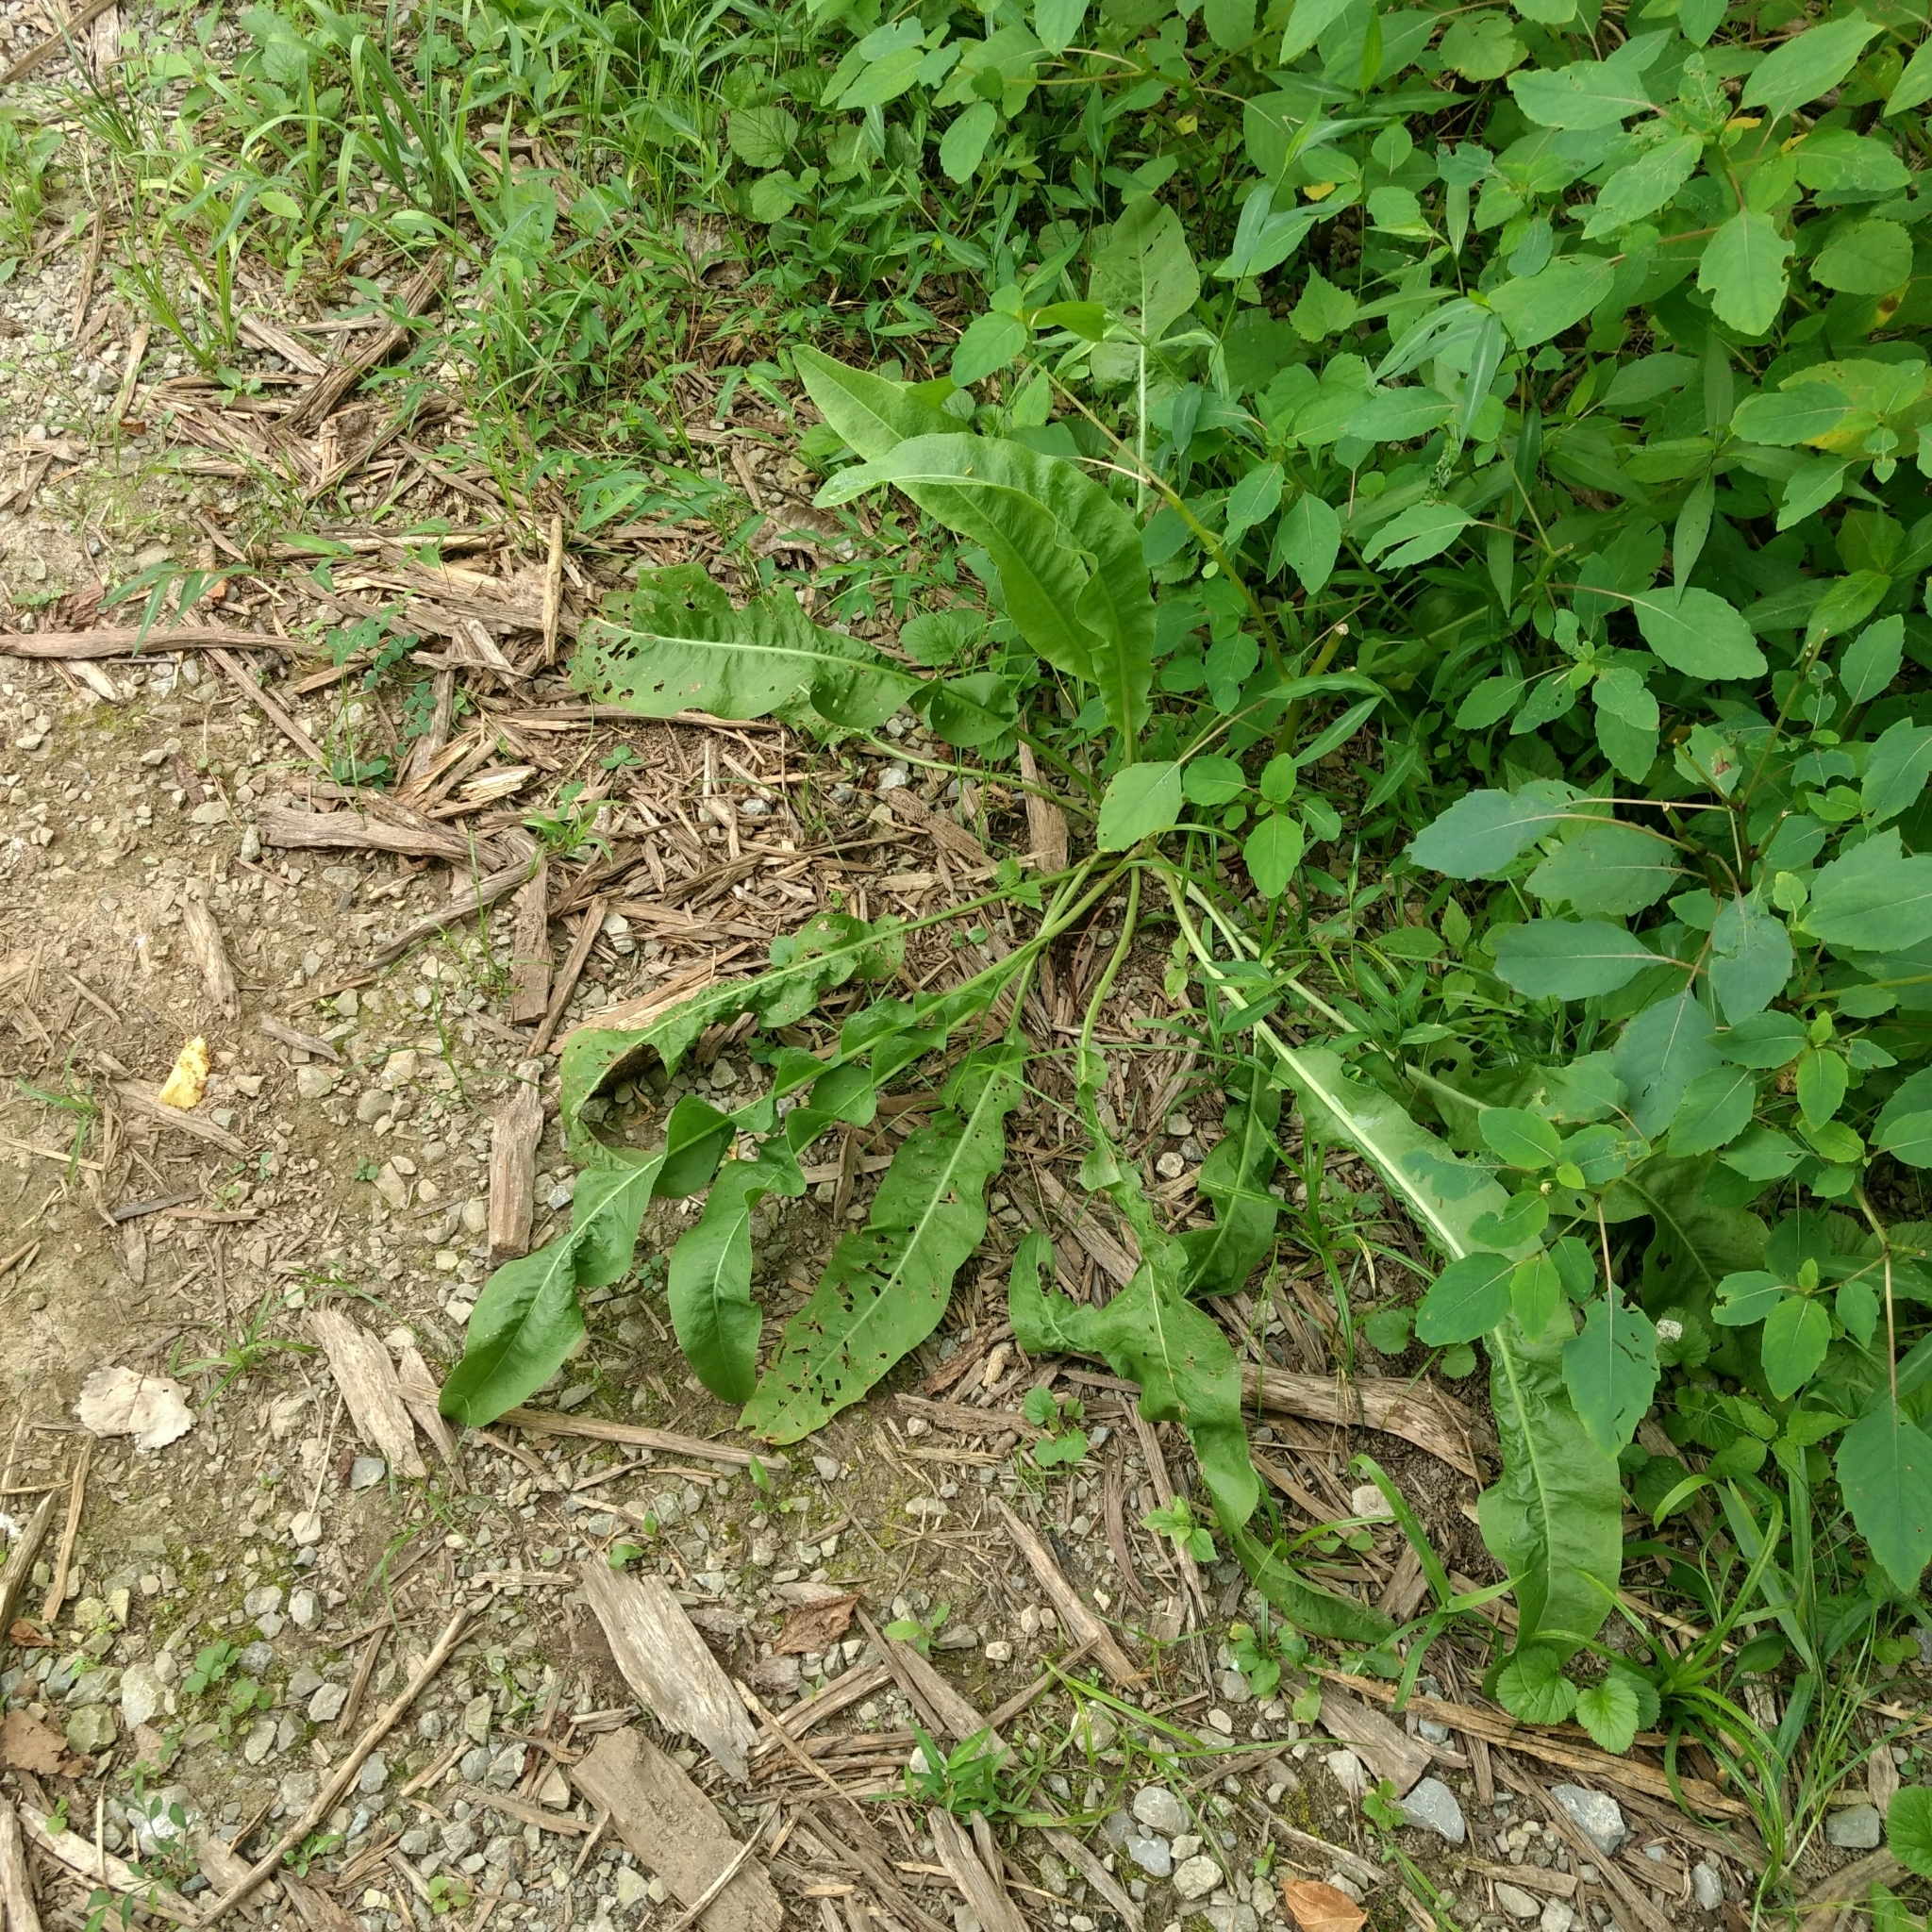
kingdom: Plantae
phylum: Tracheophyta
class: Magnoliopsida
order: Caryophyllales
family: Polygonaceae
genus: Rumex
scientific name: Rumex crispus
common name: Curled dock
